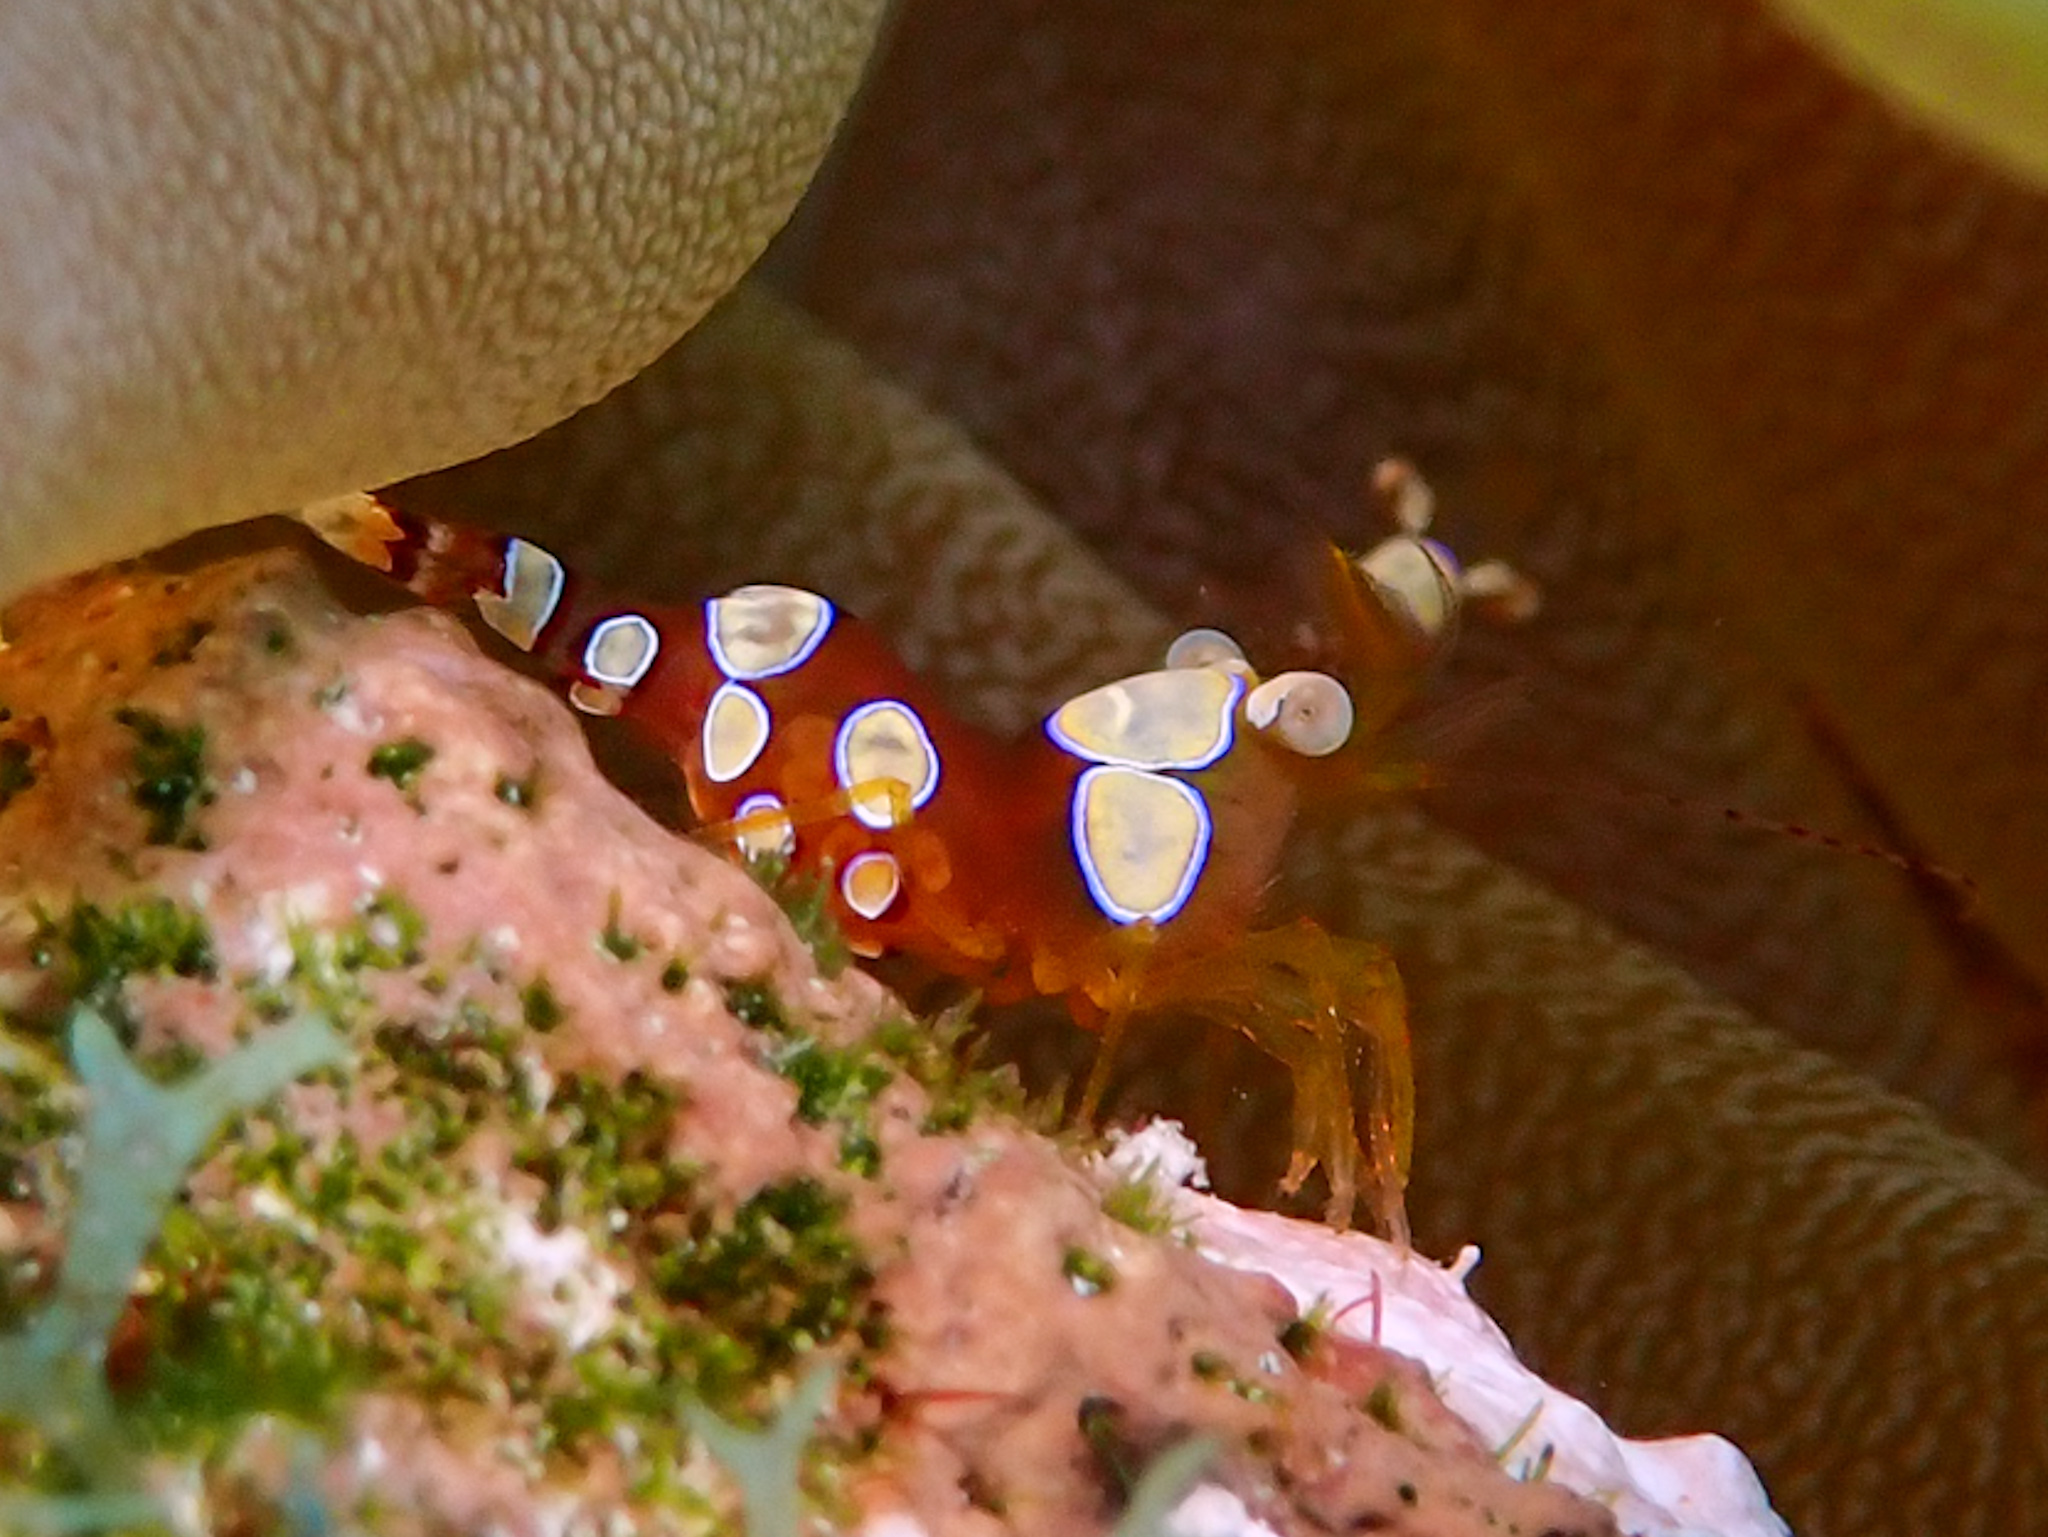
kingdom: Animalia
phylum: Arthropoda
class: Malacostraca
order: Decapoda
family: Thoridae
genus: Thor
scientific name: Thor dicaprio
